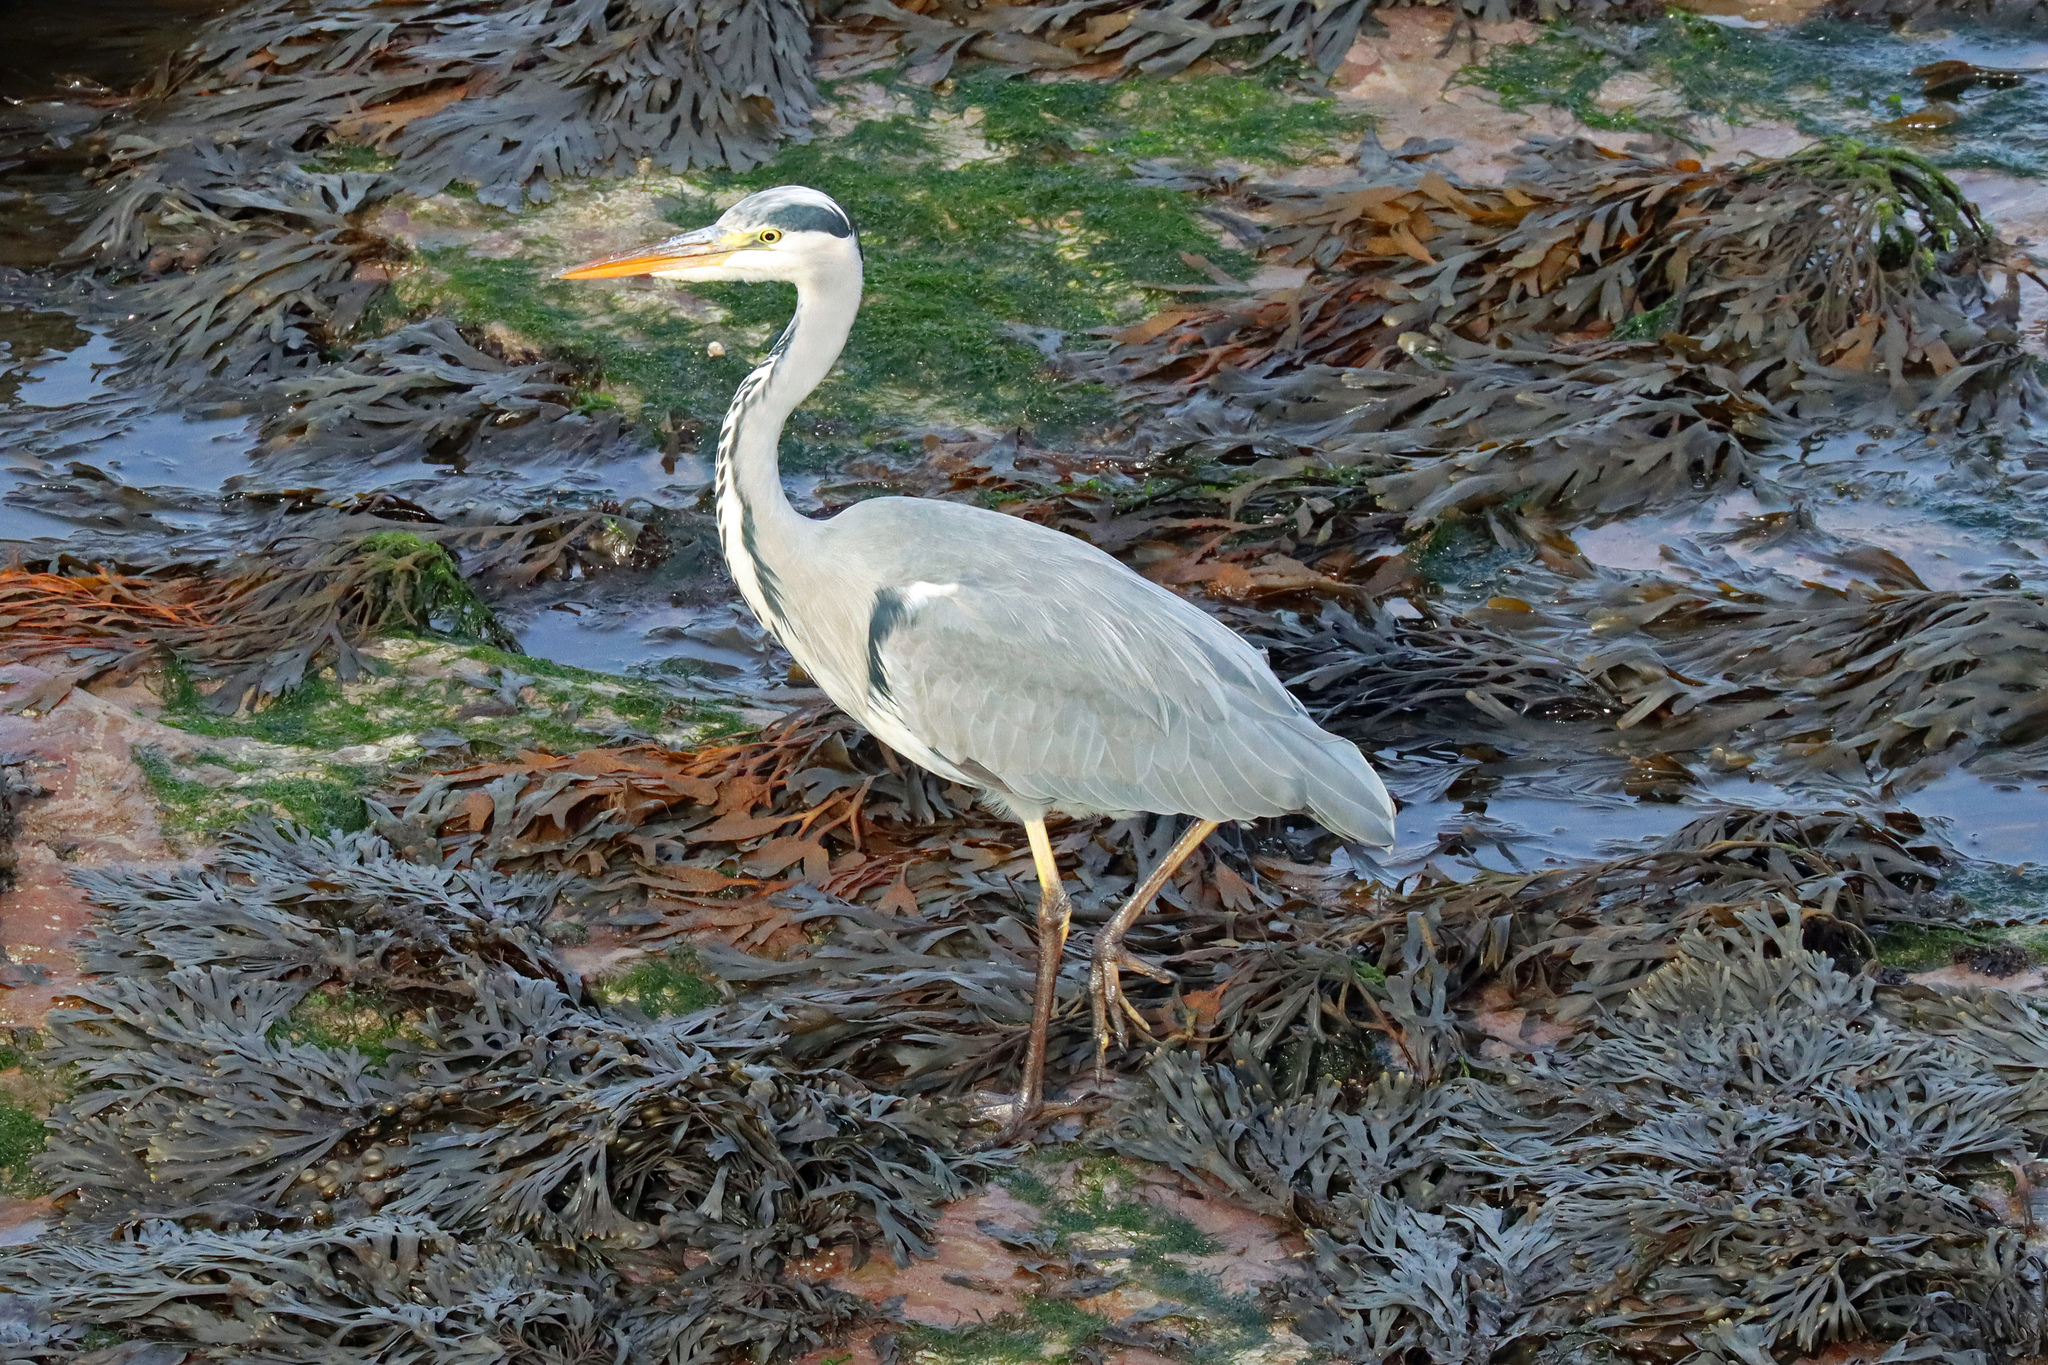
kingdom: Animalia
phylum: Chordata
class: Aves
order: Pelecaniformes
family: Ardeidae
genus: Ardea
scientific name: Ardea cinerea
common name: Grey heron
